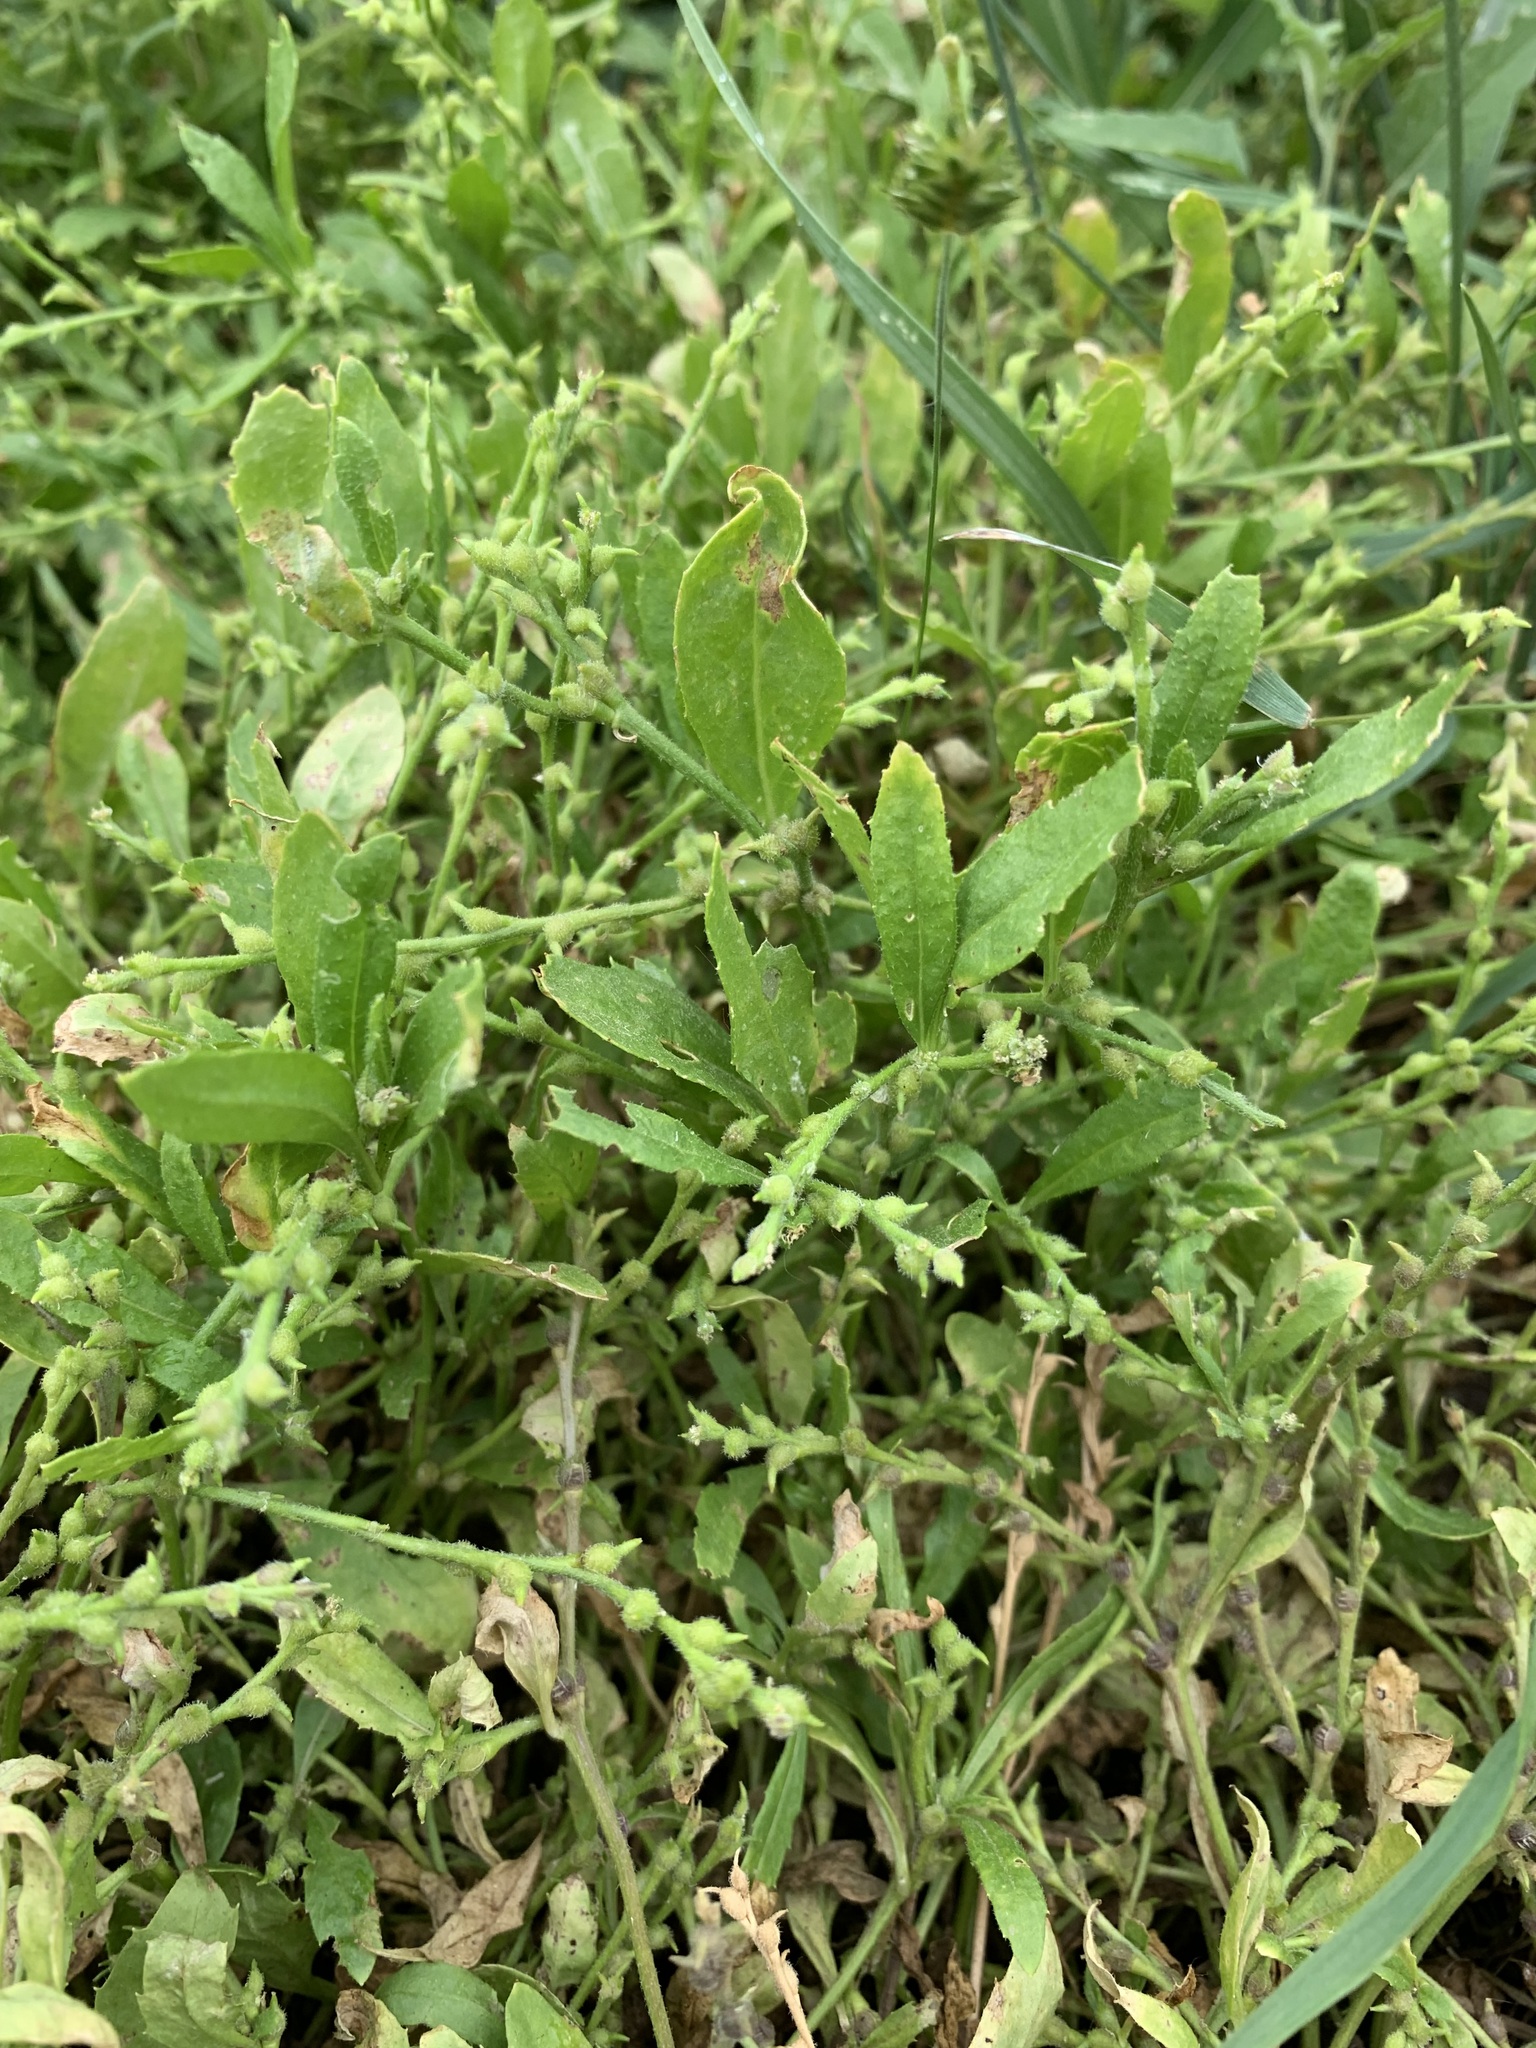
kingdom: Plantae
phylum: Tracheophyta
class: Magnoliopsida
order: Brassicales
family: Brassicaceae
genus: Euclidium
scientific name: Euclidium syriacum
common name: Syrian mustard
